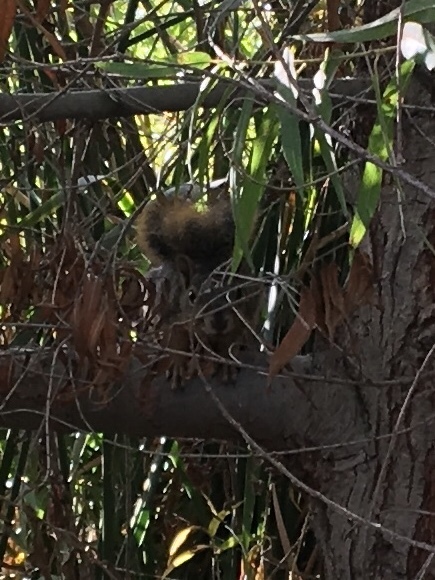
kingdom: Animalia
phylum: Chordata
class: Mammalia
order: Rodentia
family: Sciuridae
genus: Sciurus
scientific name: Sciurus niger
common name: Fox squirrel
